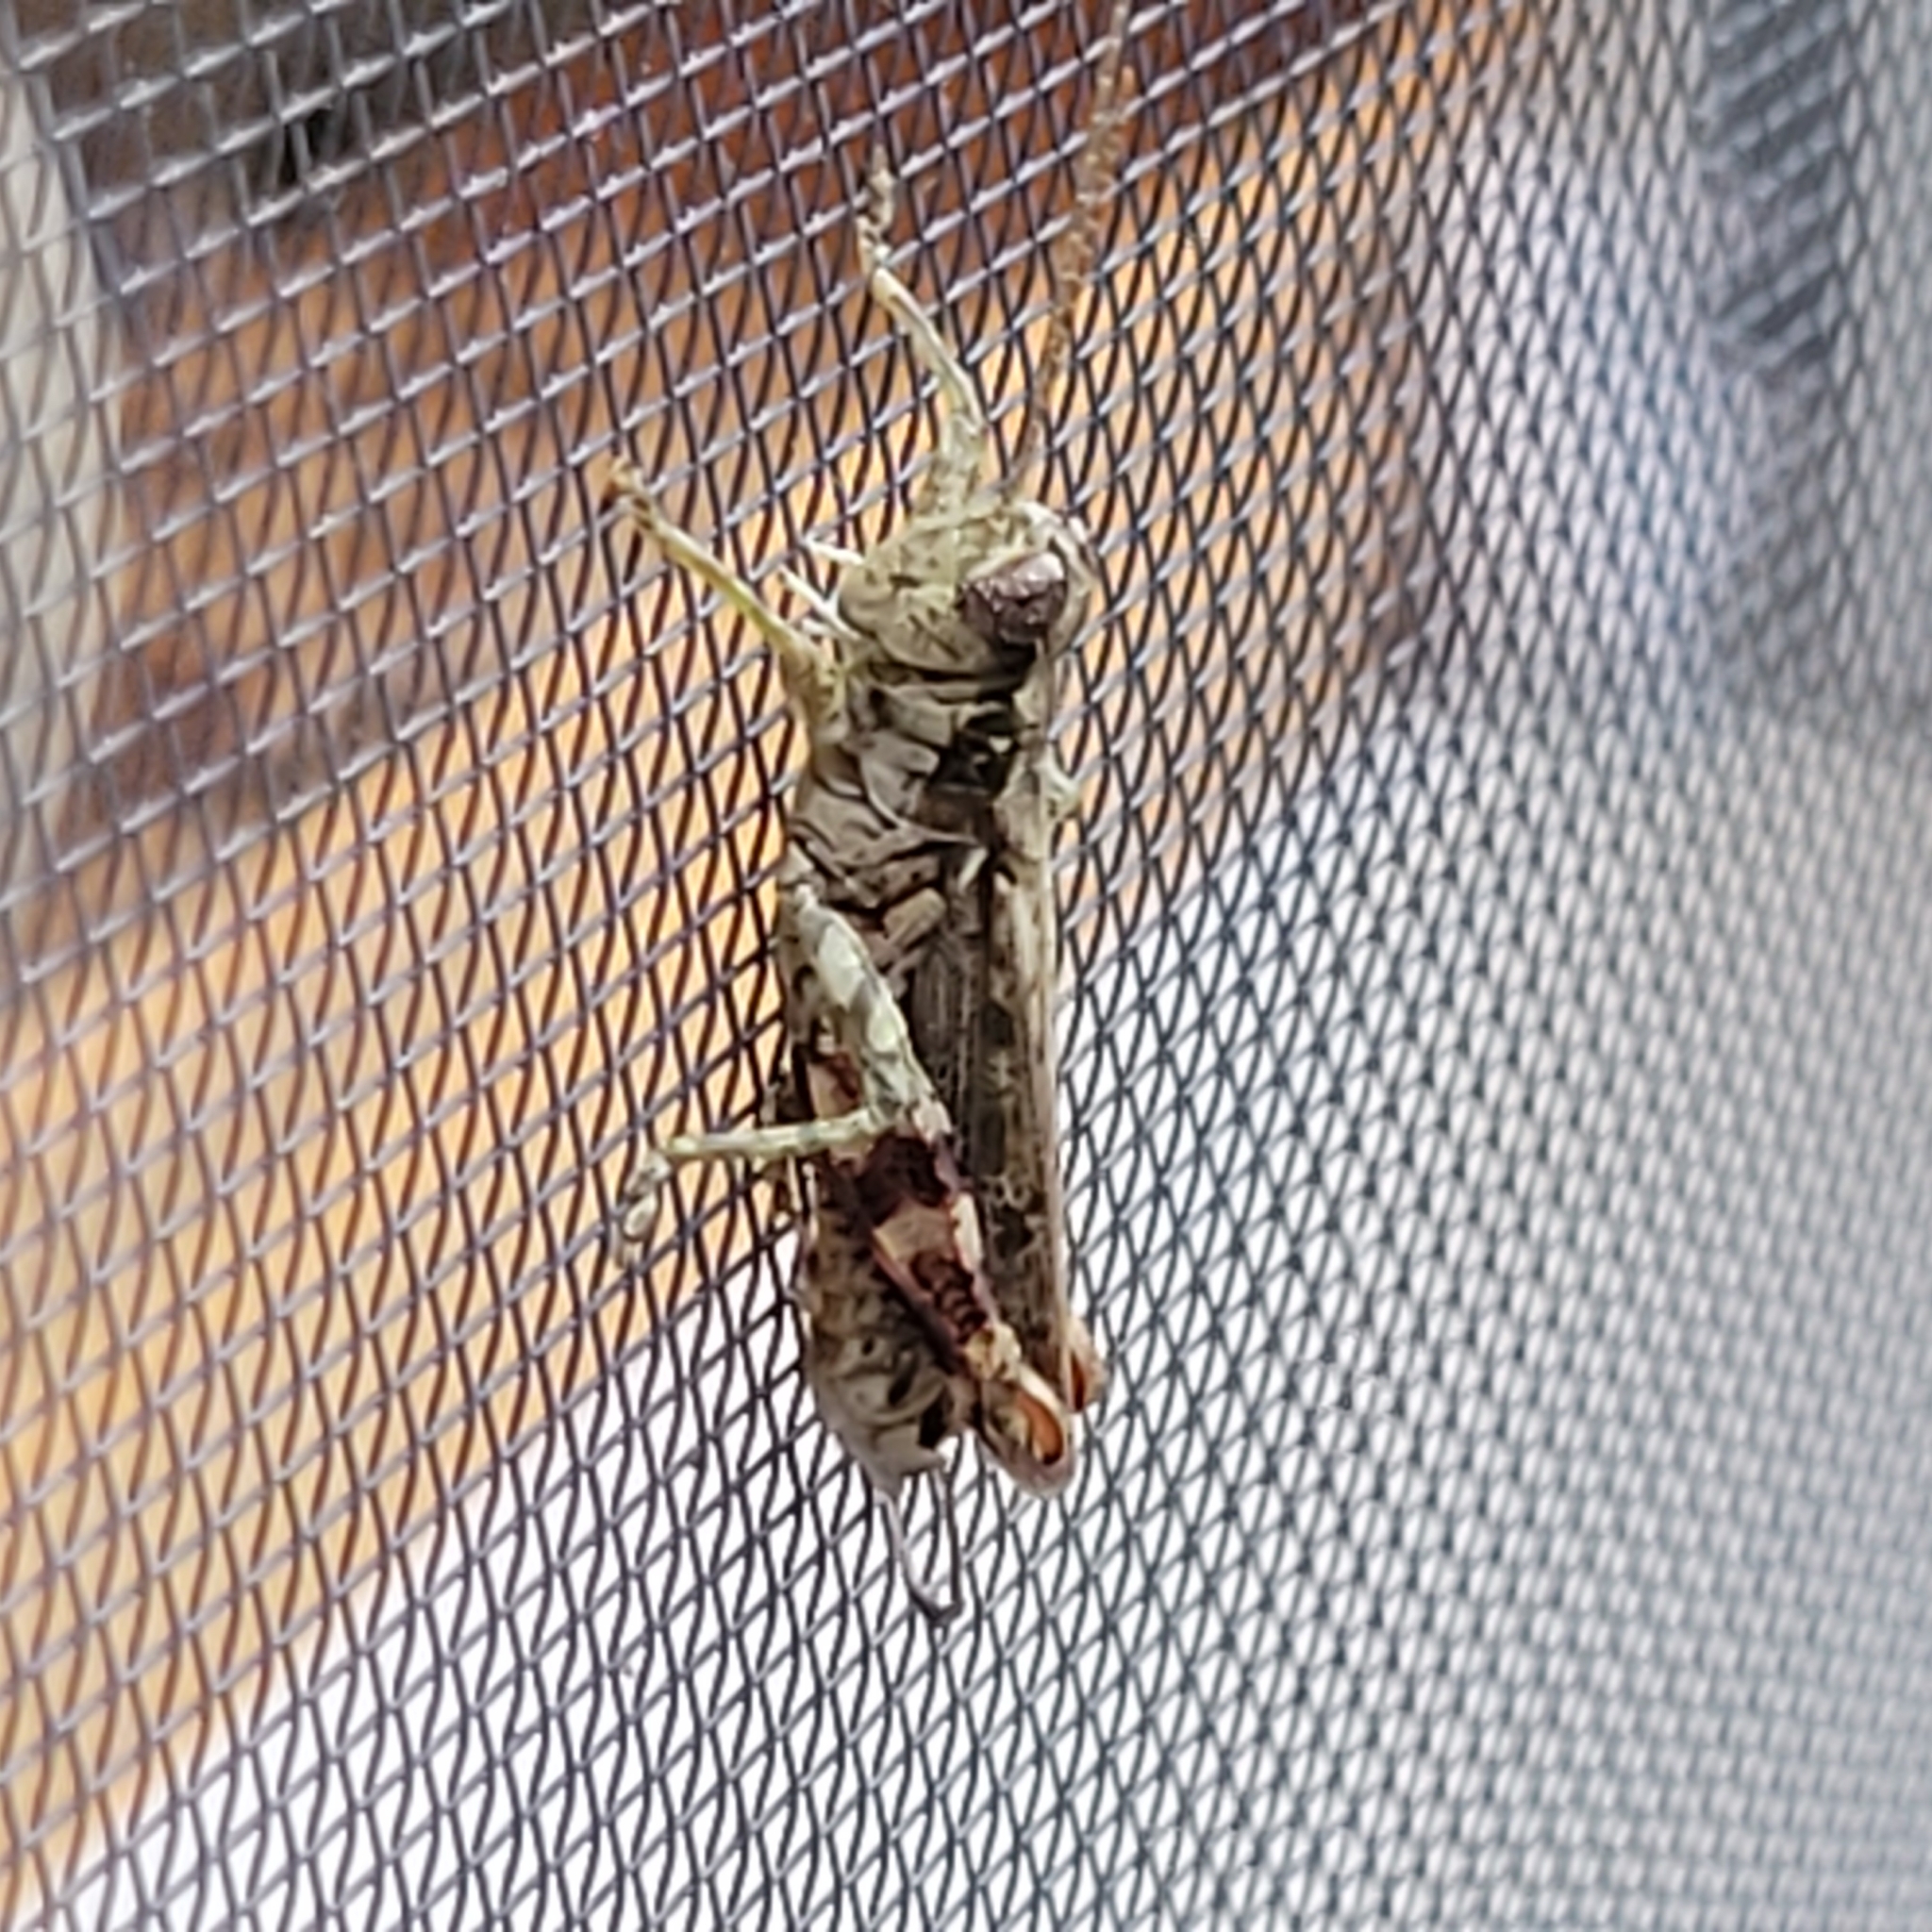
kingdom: Animalia
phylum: Arthropoda
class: Insecta
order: Orthoptera
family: Acrididae
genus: Melanoplus
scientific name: Melanoplus punctulatus
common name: Pine-tree spur-throat grasshopper
